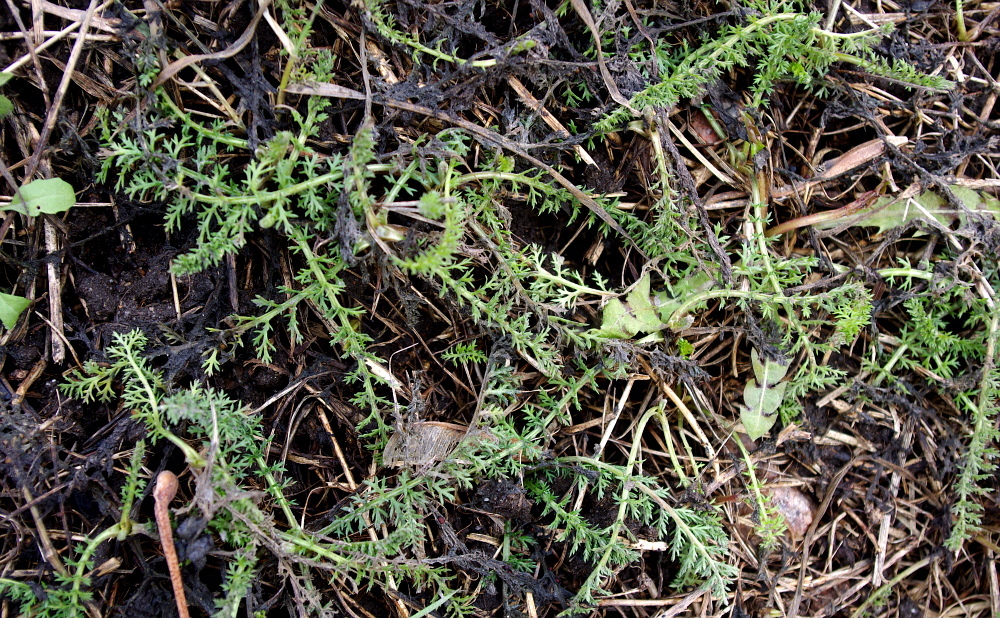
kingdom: Plantae
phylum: Tracheophyta
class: Magnoliopsida
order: Asterales
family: Asteraceae
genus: Achillea
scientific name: Achillea millefolium
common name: Yarrow
